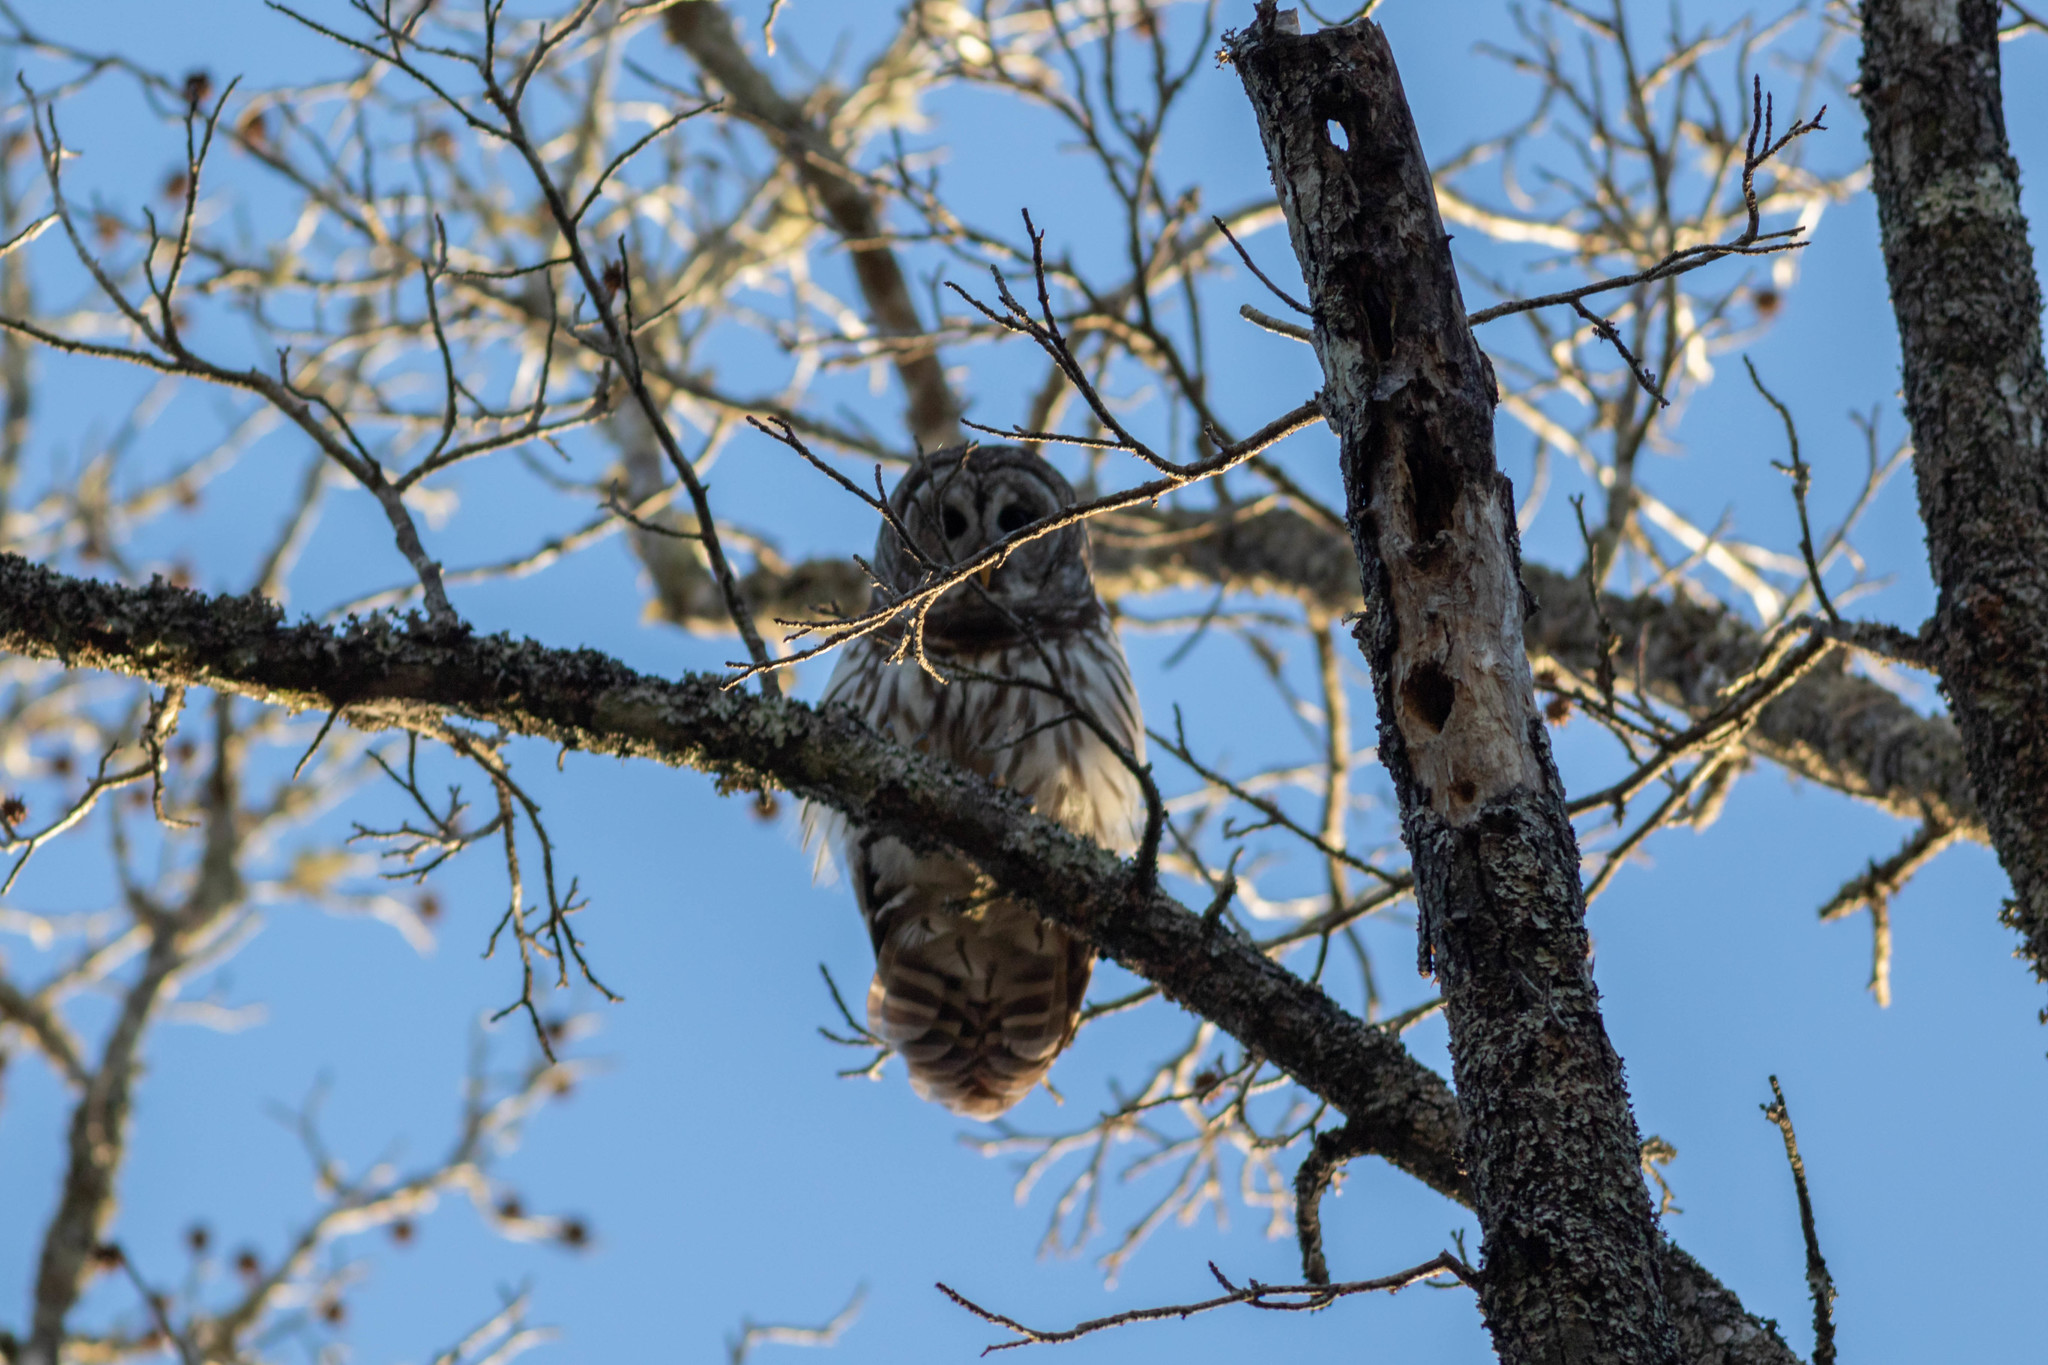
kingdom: Animalia
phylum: Chordata
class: Aves
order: Strigiformes
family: Strigidae
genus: Strix
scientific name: Strix varia
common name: Barred owl
